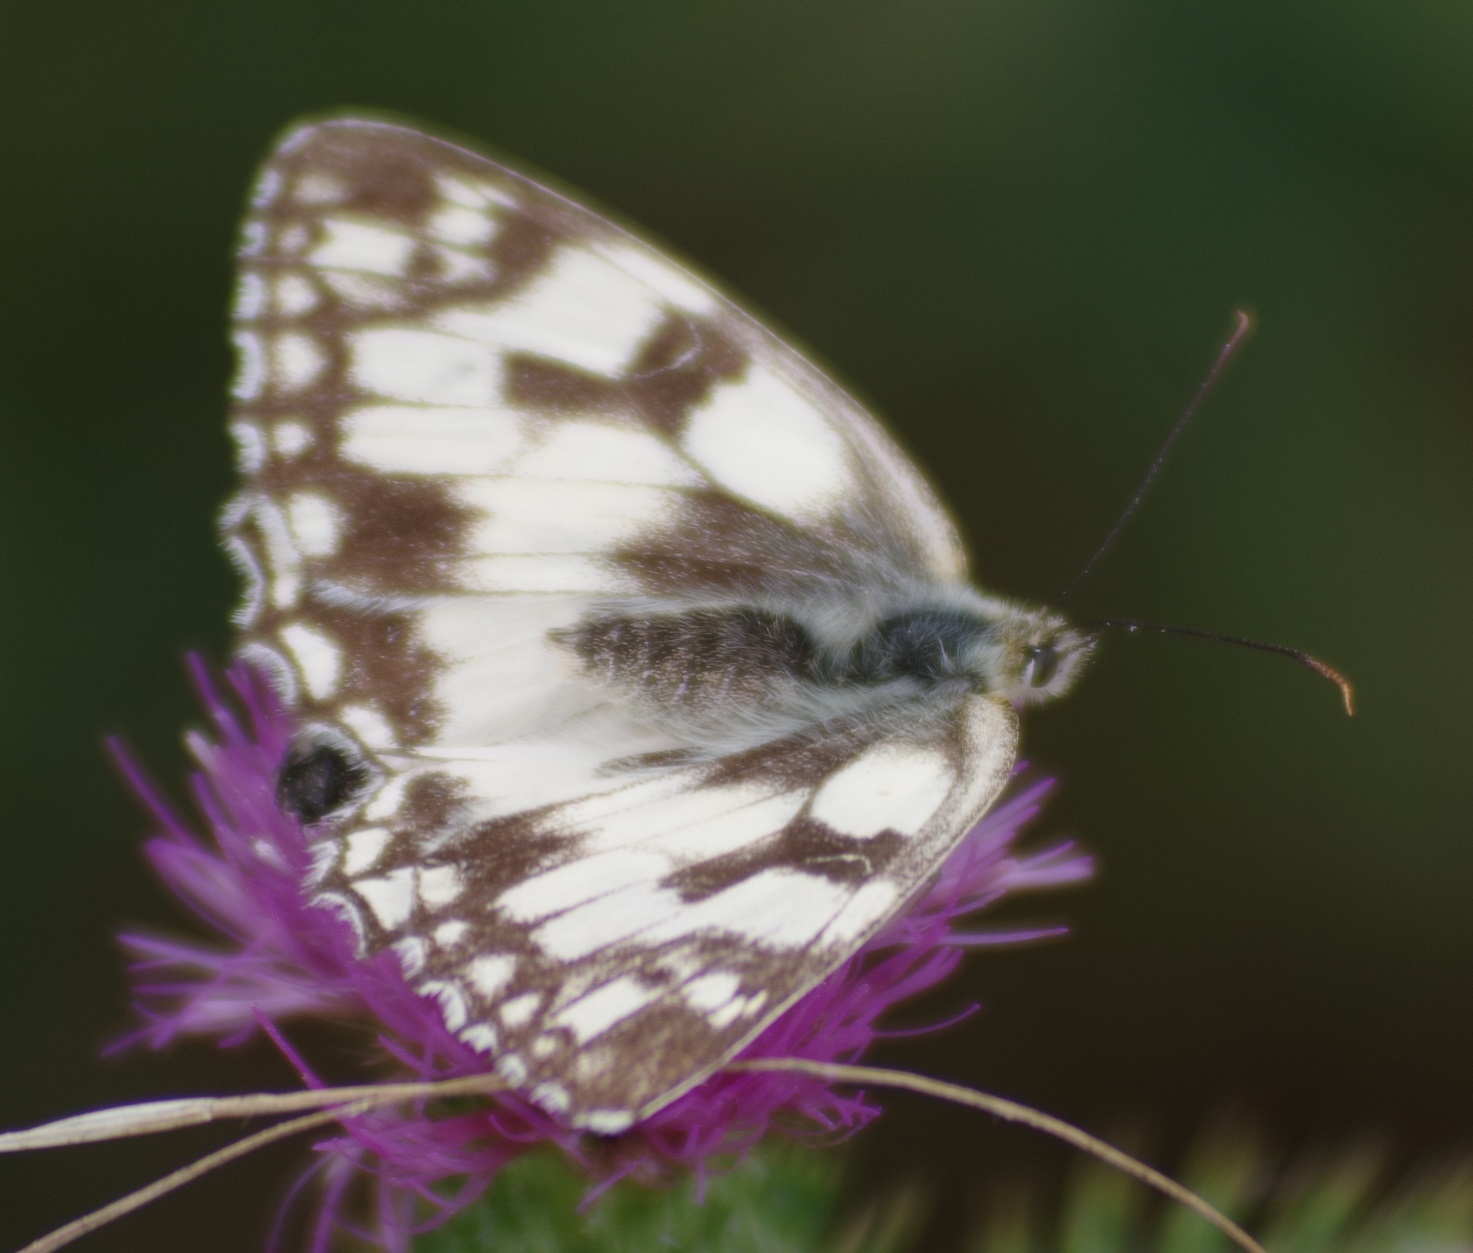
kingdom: Animalia
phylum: Arthropoda
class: Insecta
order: Lepidoptera
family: Nymphalidae
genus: Melanargia
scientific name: Melanargia galathea
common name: Marbled white
